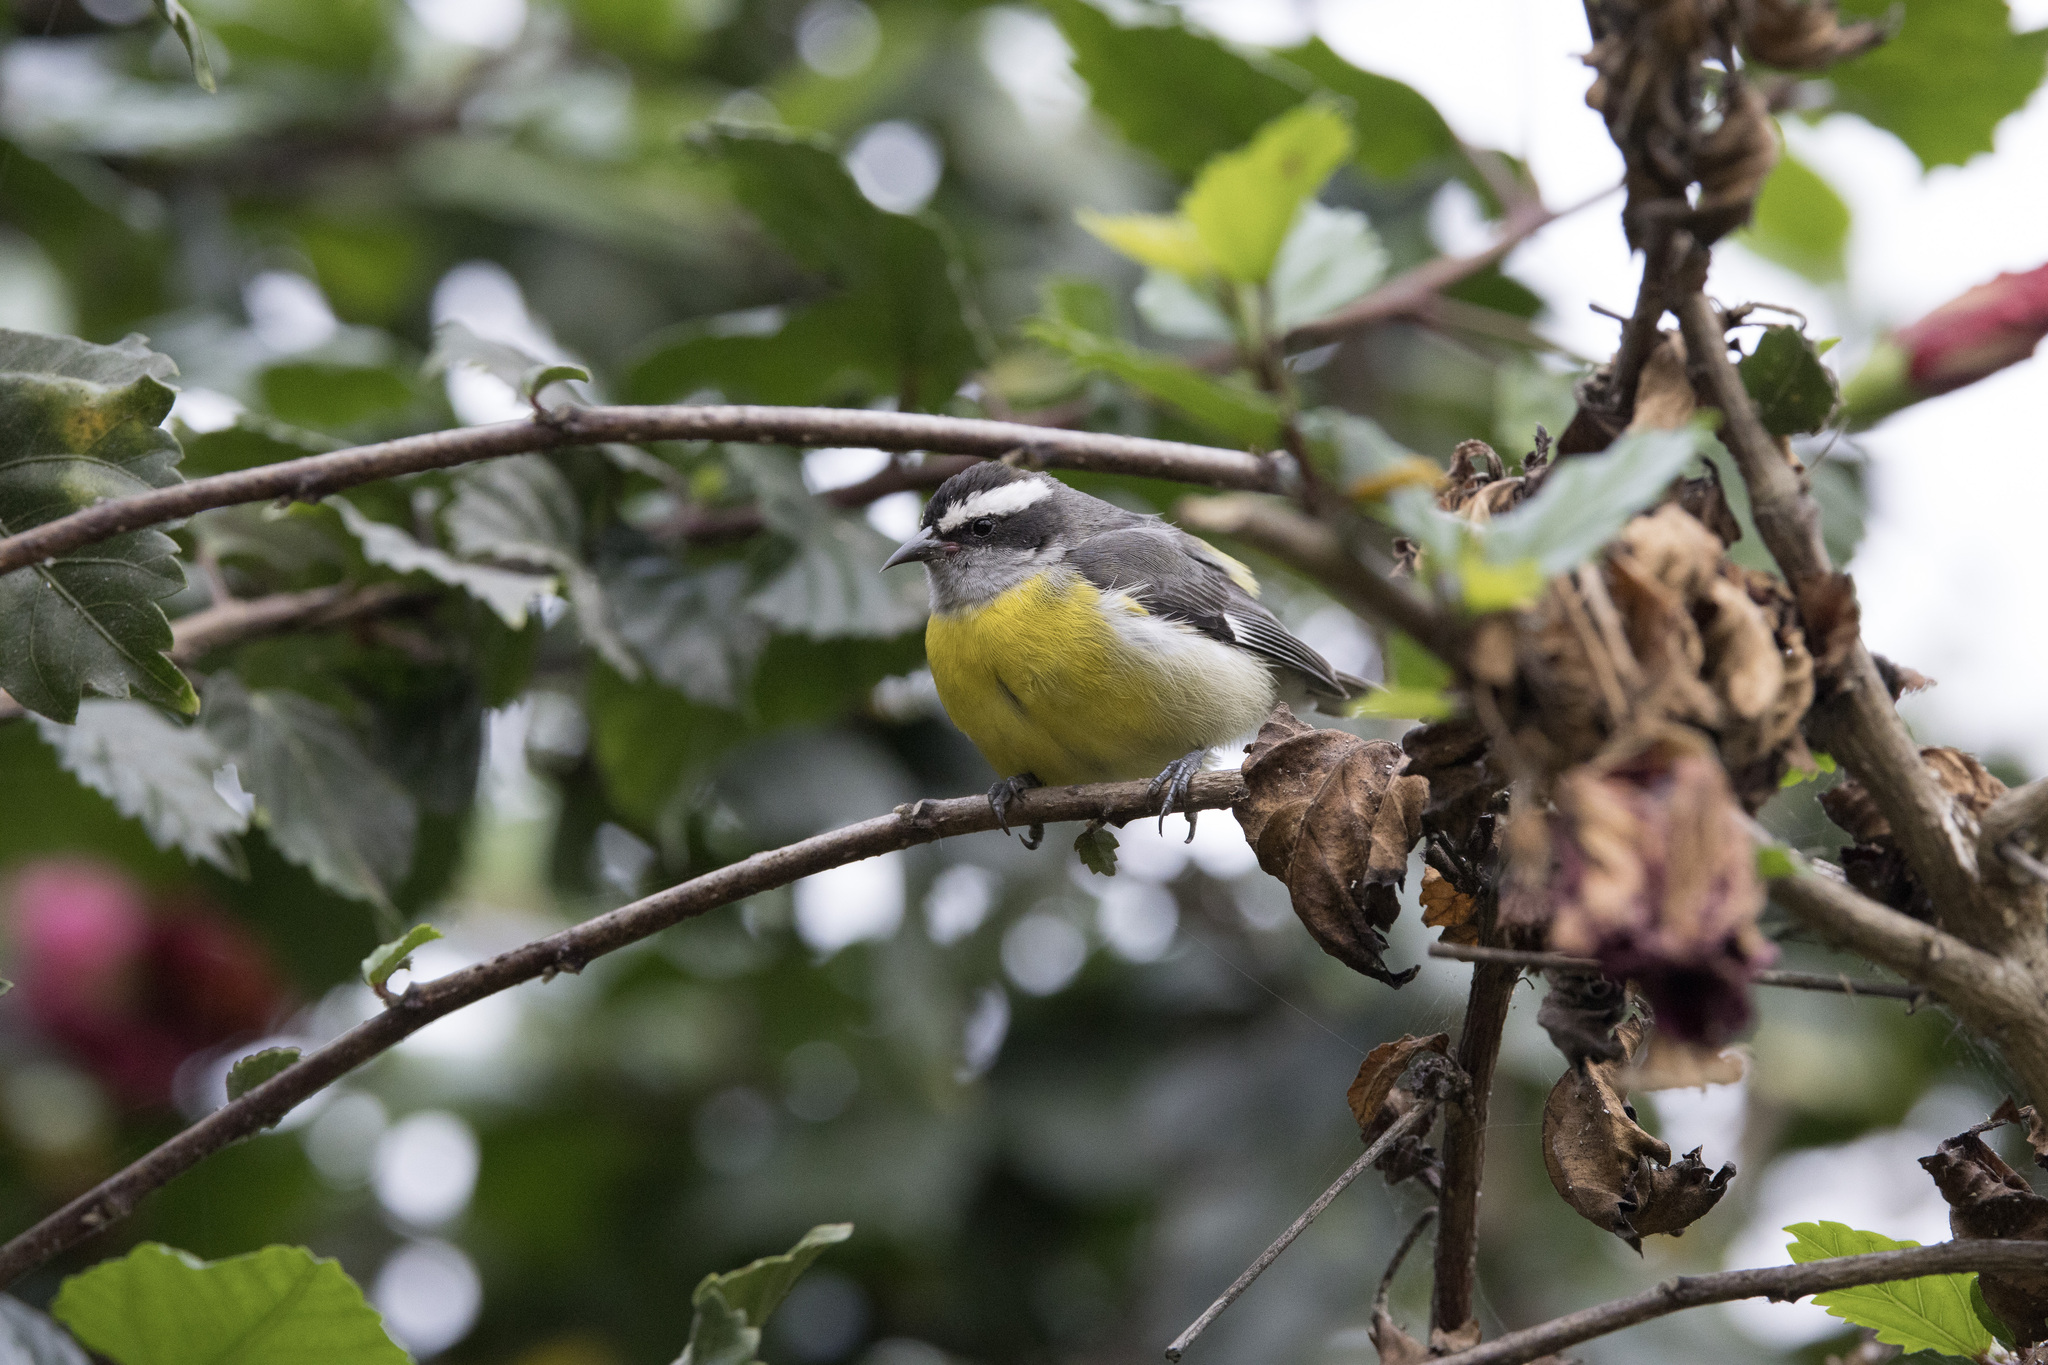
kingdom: Animalia
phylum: Chordata
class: Aves
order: Passeriformes
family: Thraupidae
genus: Coereba
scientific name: Coereba flaveola
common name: Bananaquit
